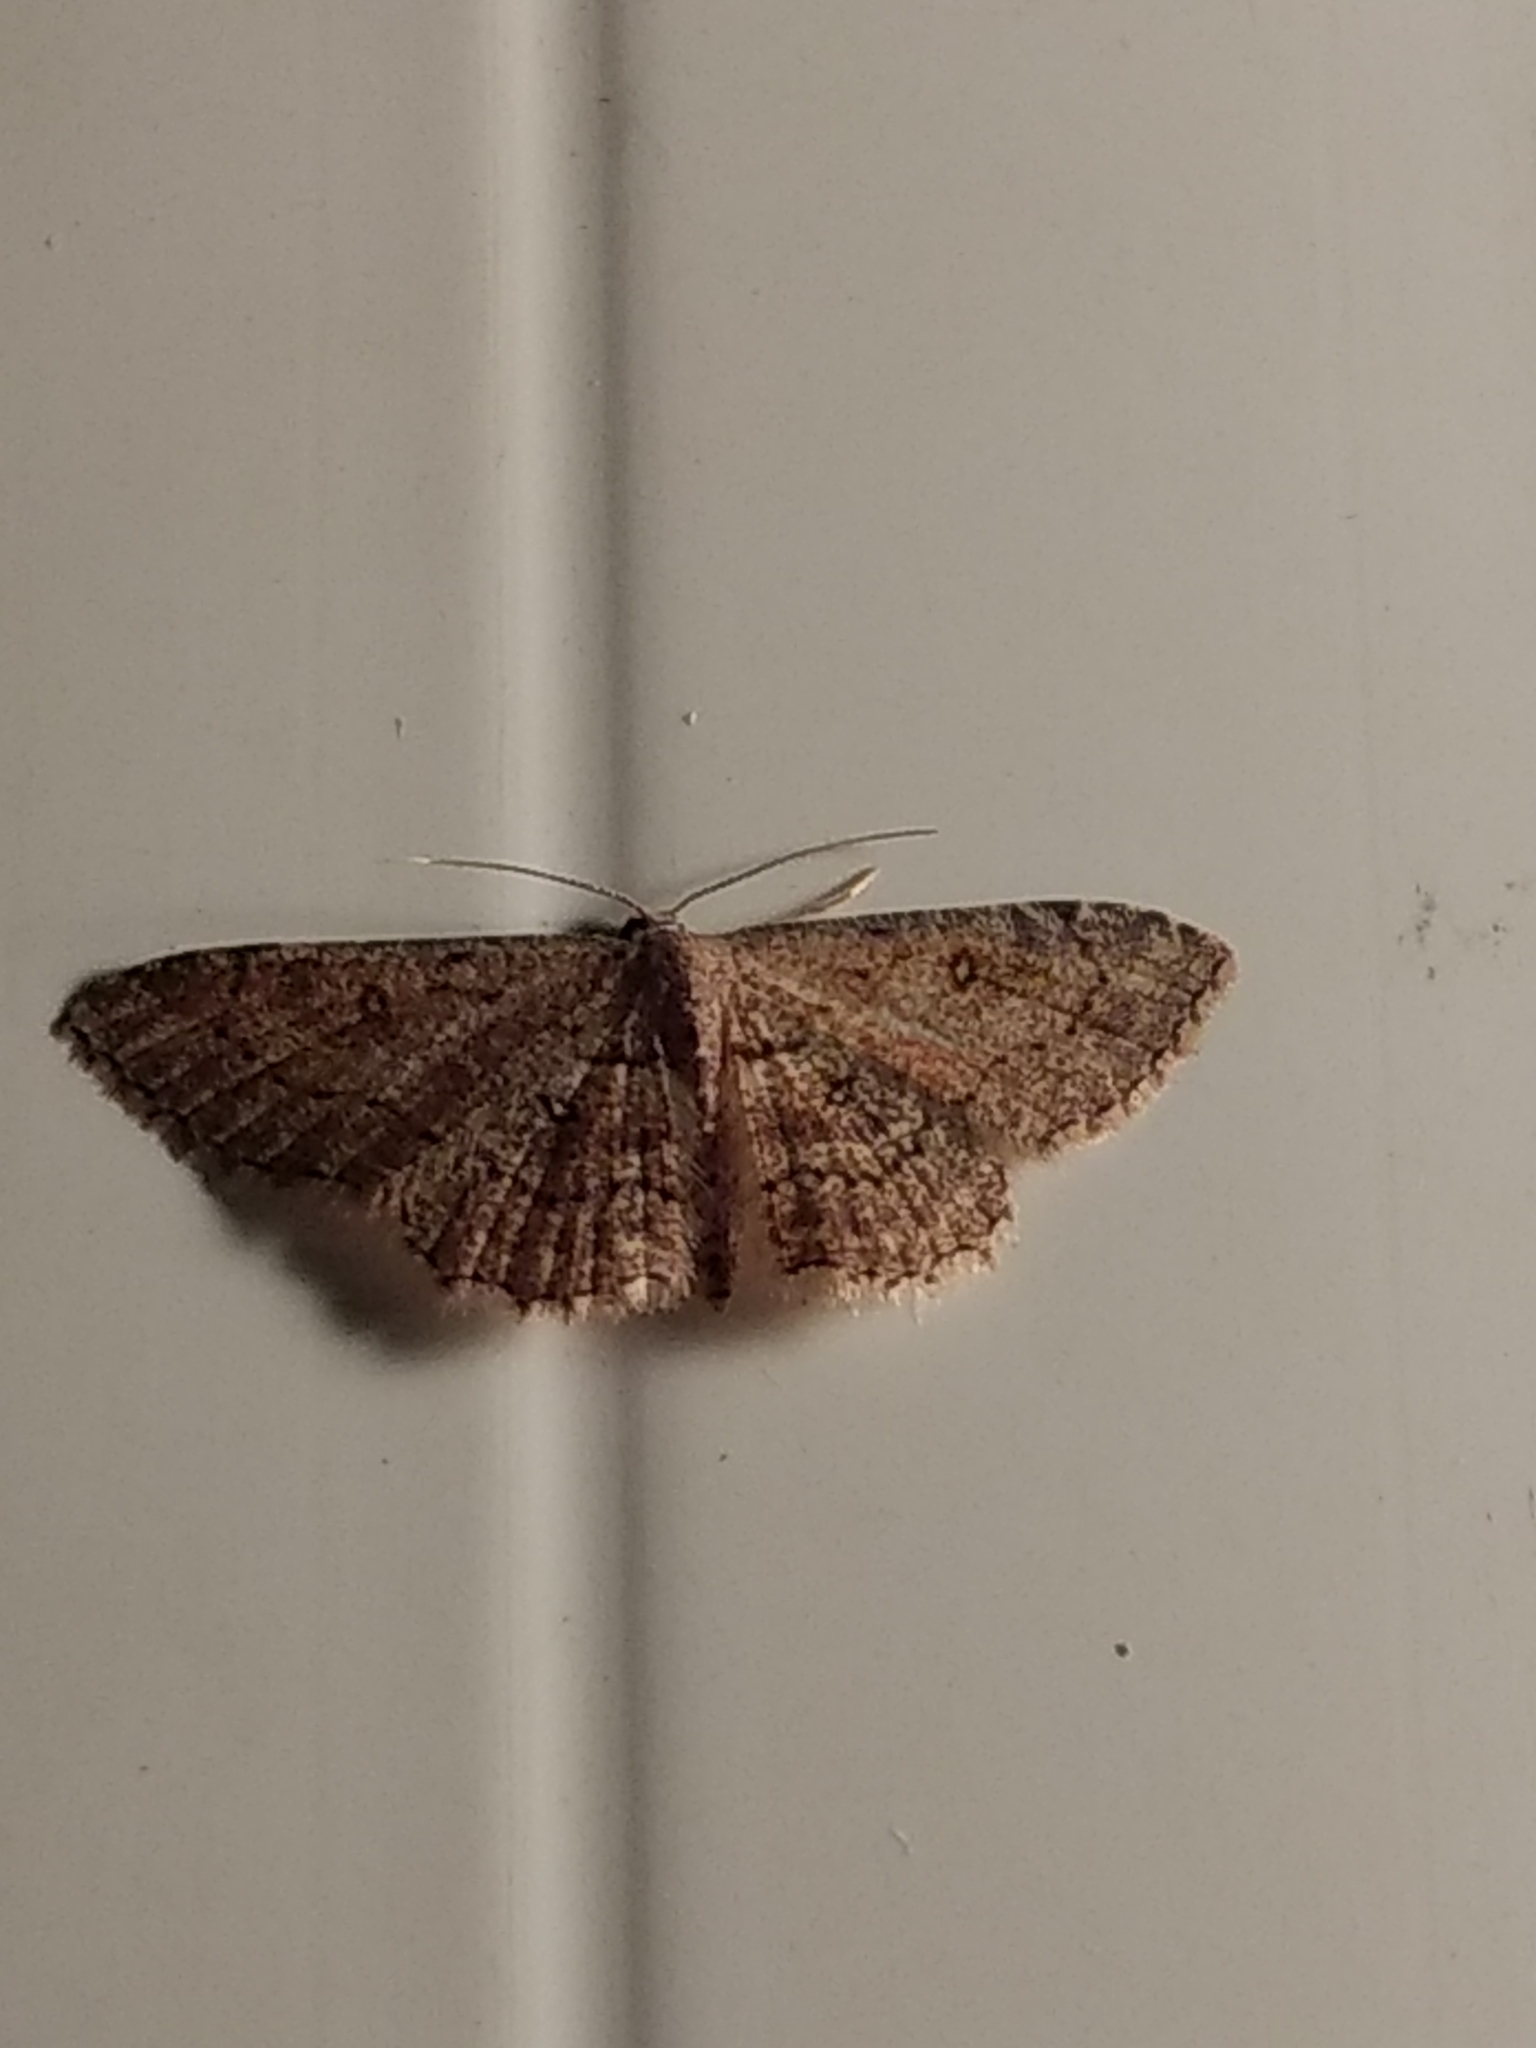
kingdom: Animalia
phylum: Arthropoda
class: Insecta
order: Lepidoptera
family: Geometridae
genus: Cyclophora
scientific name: Cyclophora nanaria
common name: Cankerworm
